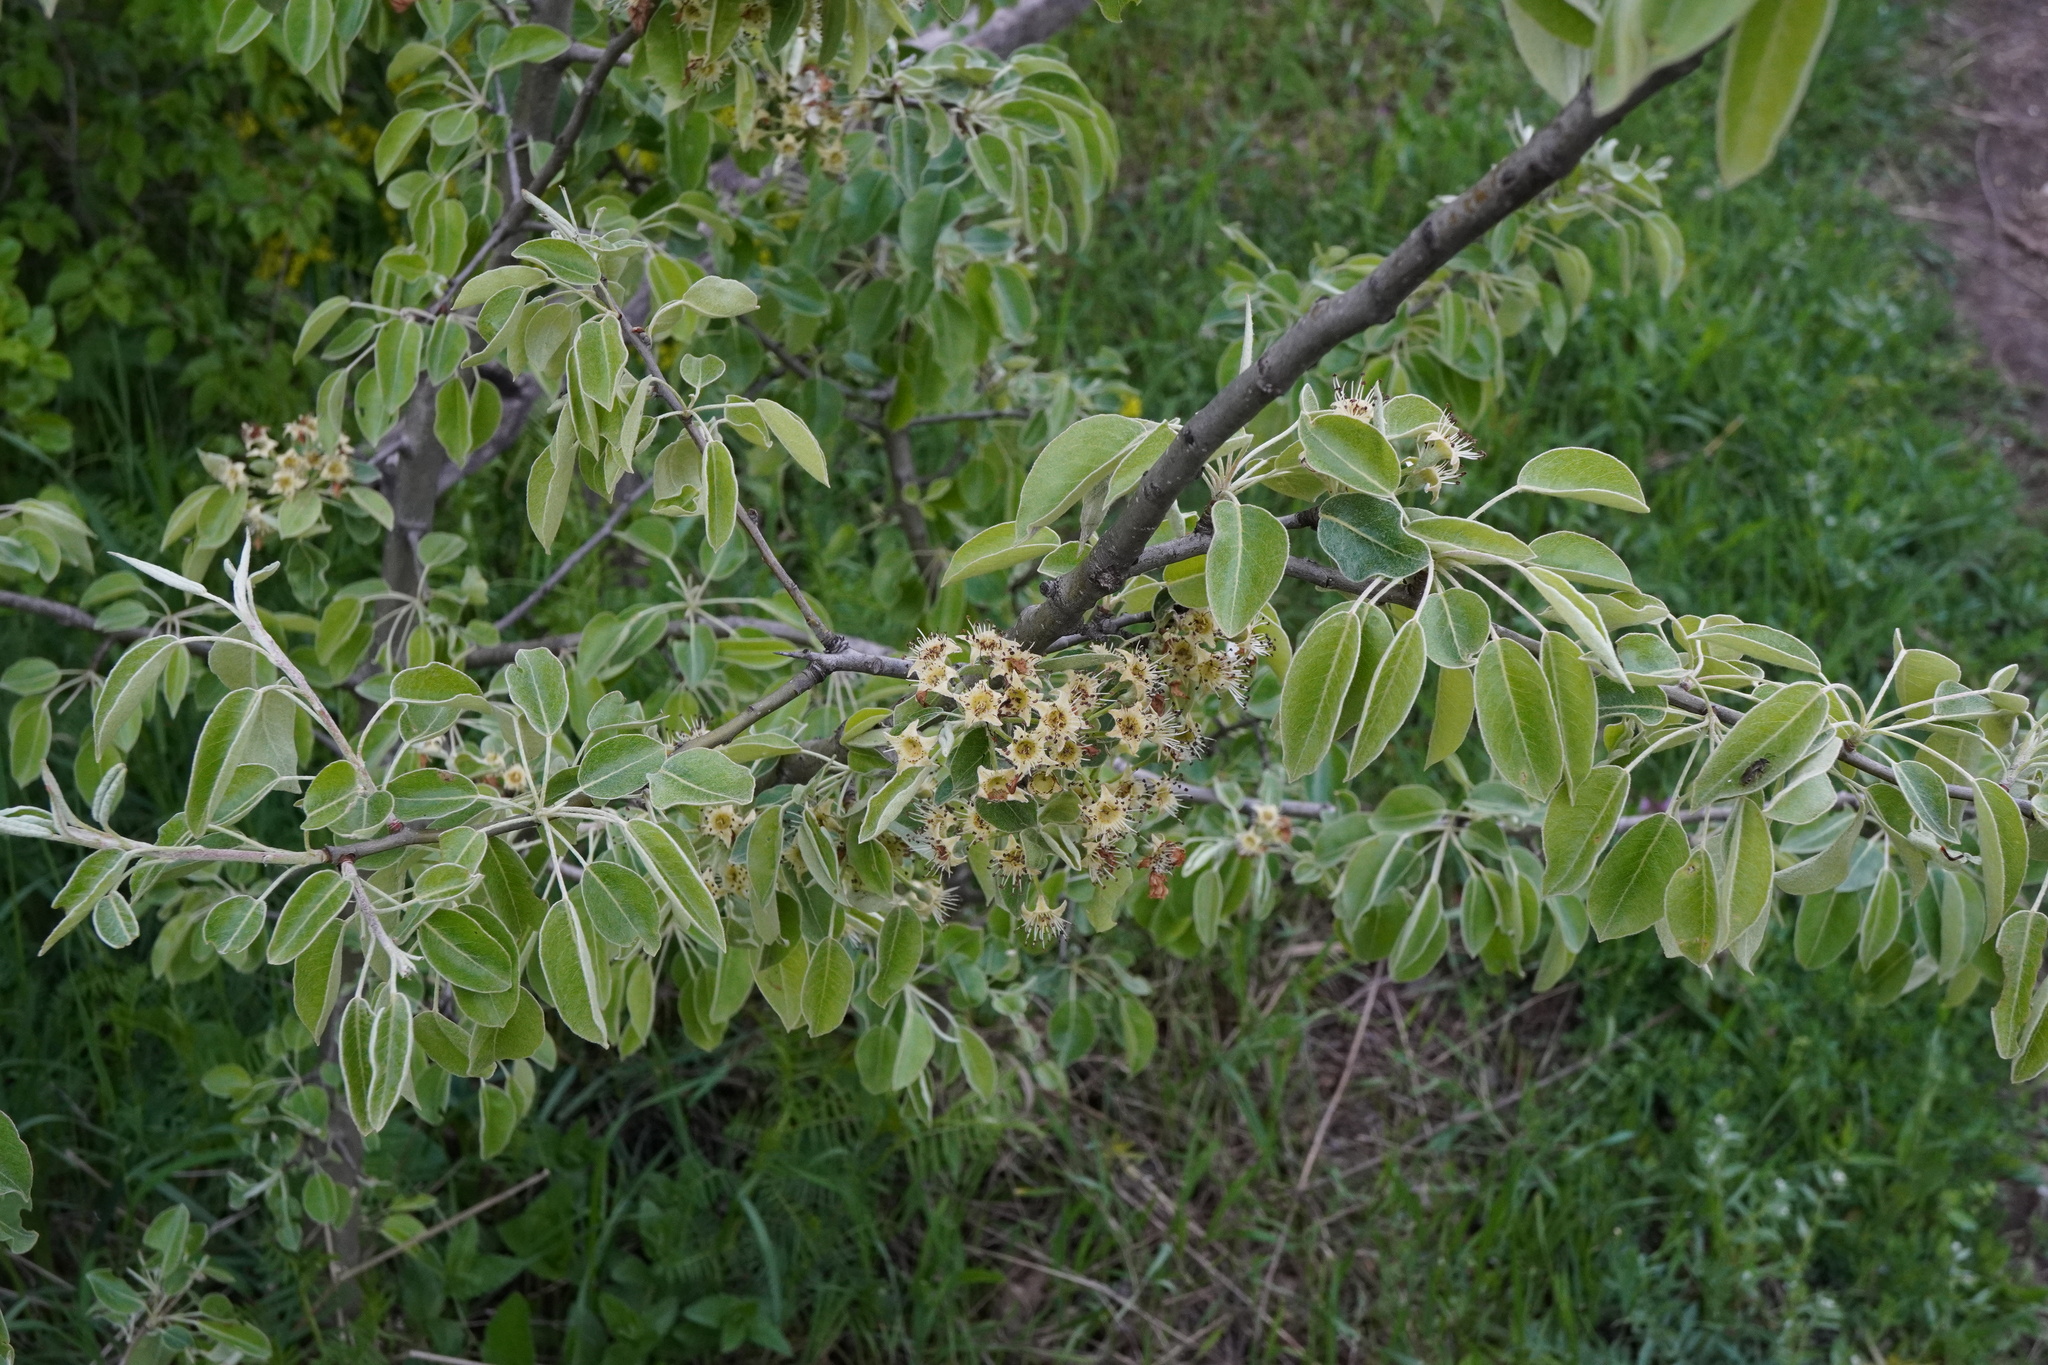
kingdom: Plantae
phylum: Tracheophyta
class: Magnoliopsida
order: Rosales
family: Rosaceae
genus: Pyrus
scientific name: Pyrus nivalis
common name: Snow pear
